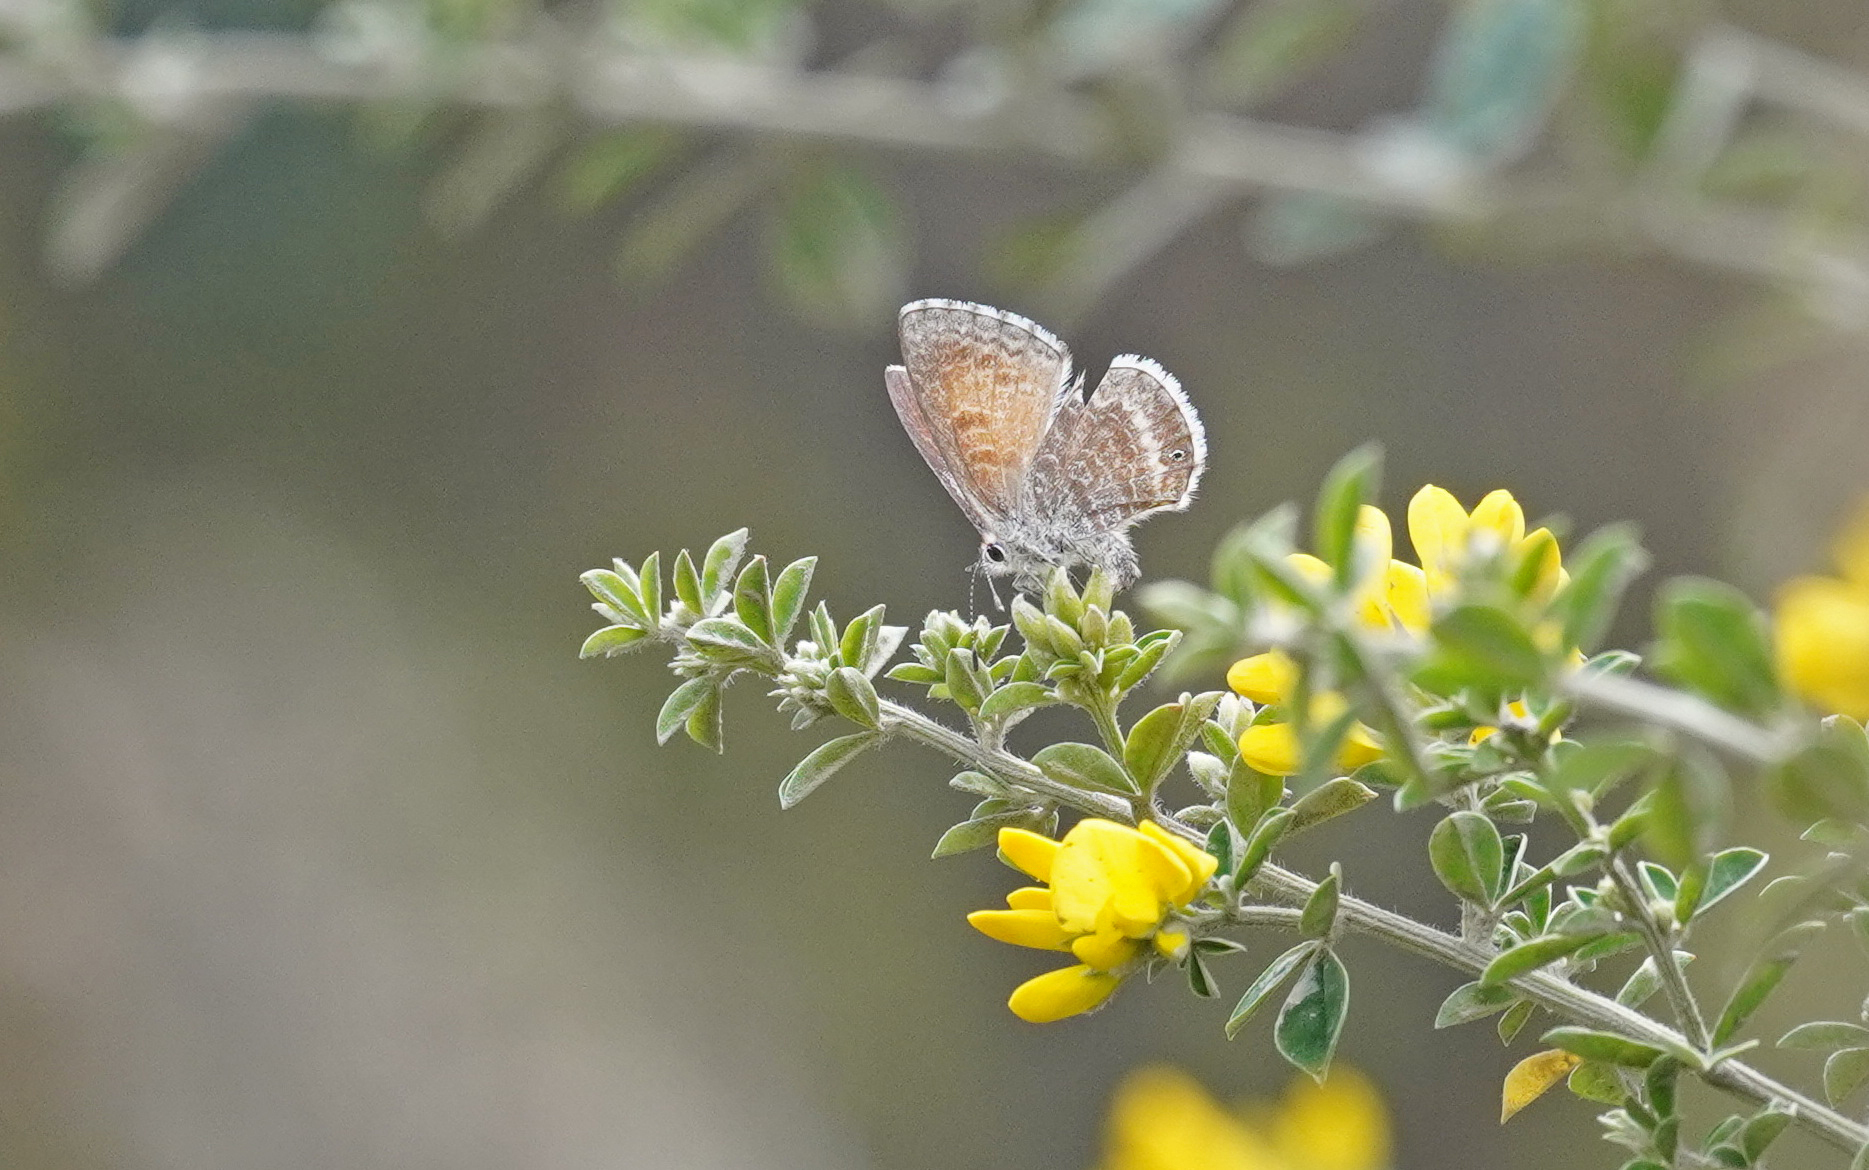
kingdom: Animalia
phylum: Arthropoda
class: Insecta
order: Lepidoptera
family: Lycaenidae
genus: Leptotes
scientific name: Leptotes callanga
